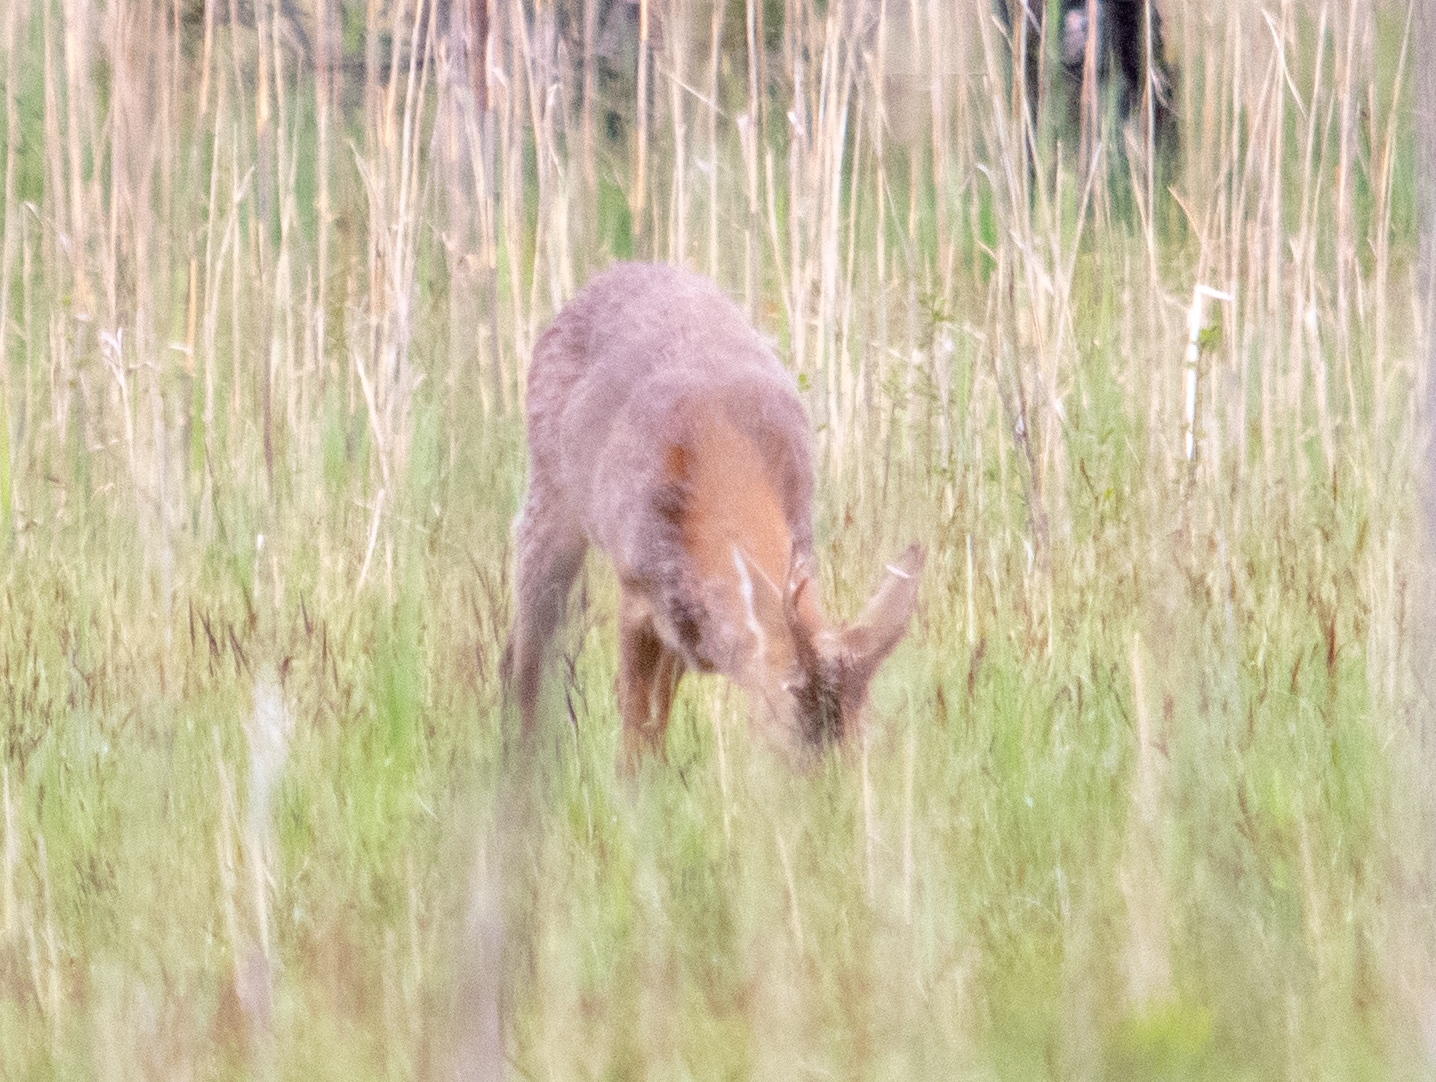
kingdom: Animalia
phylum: Chordata
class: Mammalia
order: Artiodactyla
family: Cervidae
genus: Capreolus
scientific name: Capreolus capreolus
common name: Western roe deer
